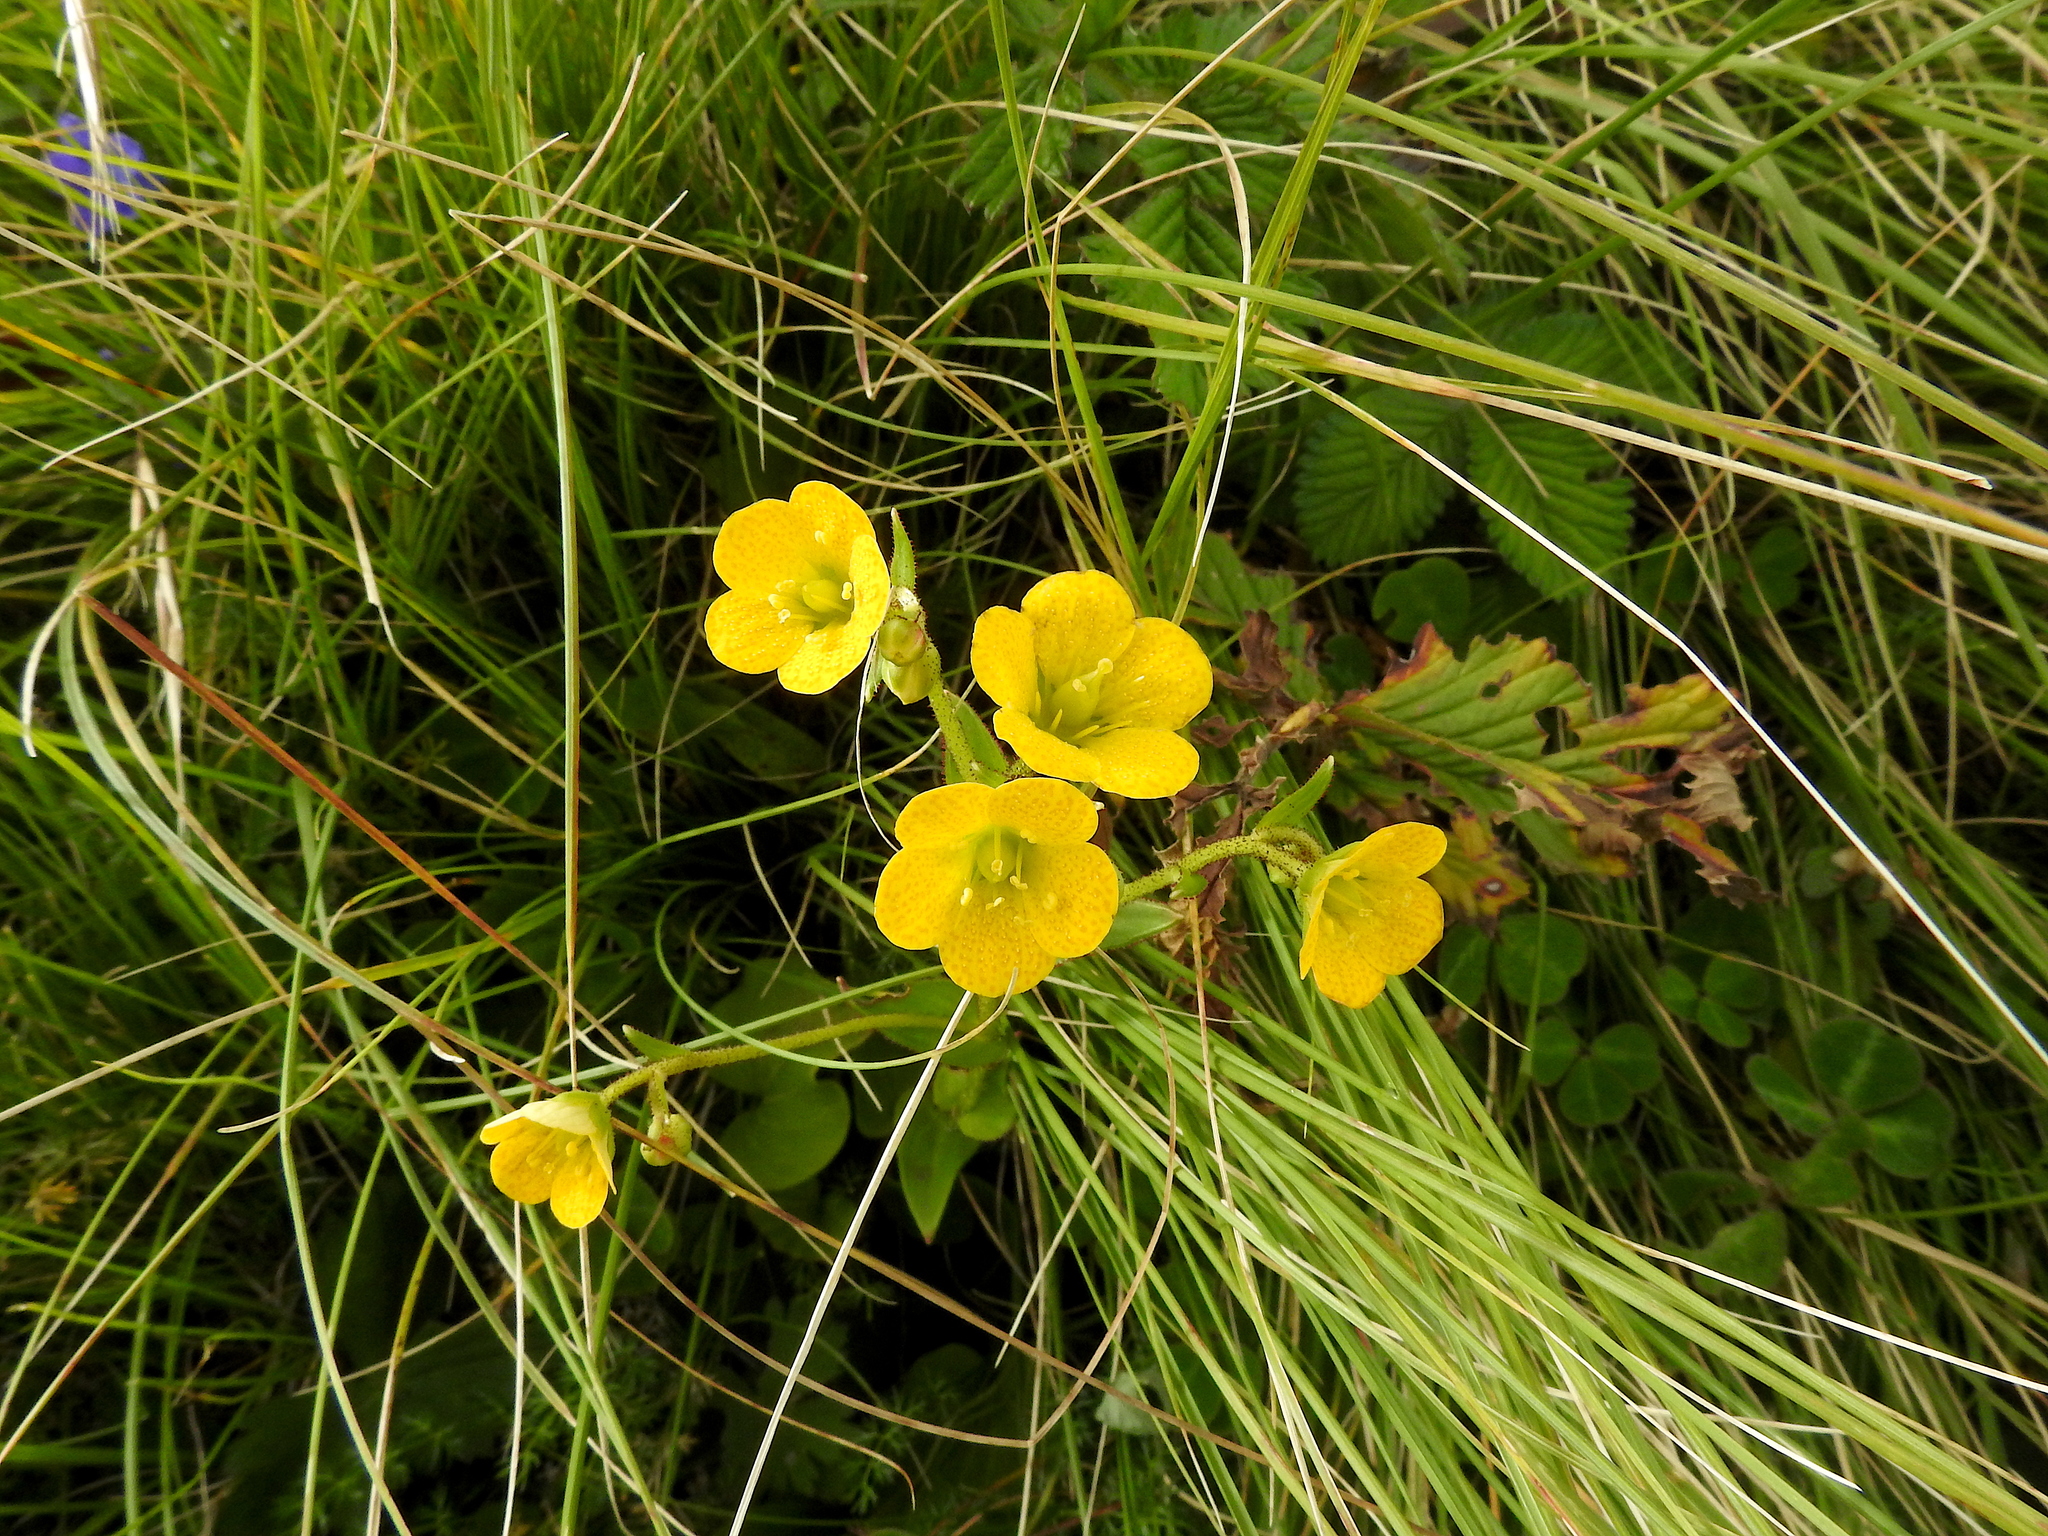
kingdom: Plantae
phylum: Tracheophyta
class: Magnoliopsida
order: Saxifragales
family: Saxifragaceae
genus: Saxifraga
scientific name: Saxifraga parnassifolia
